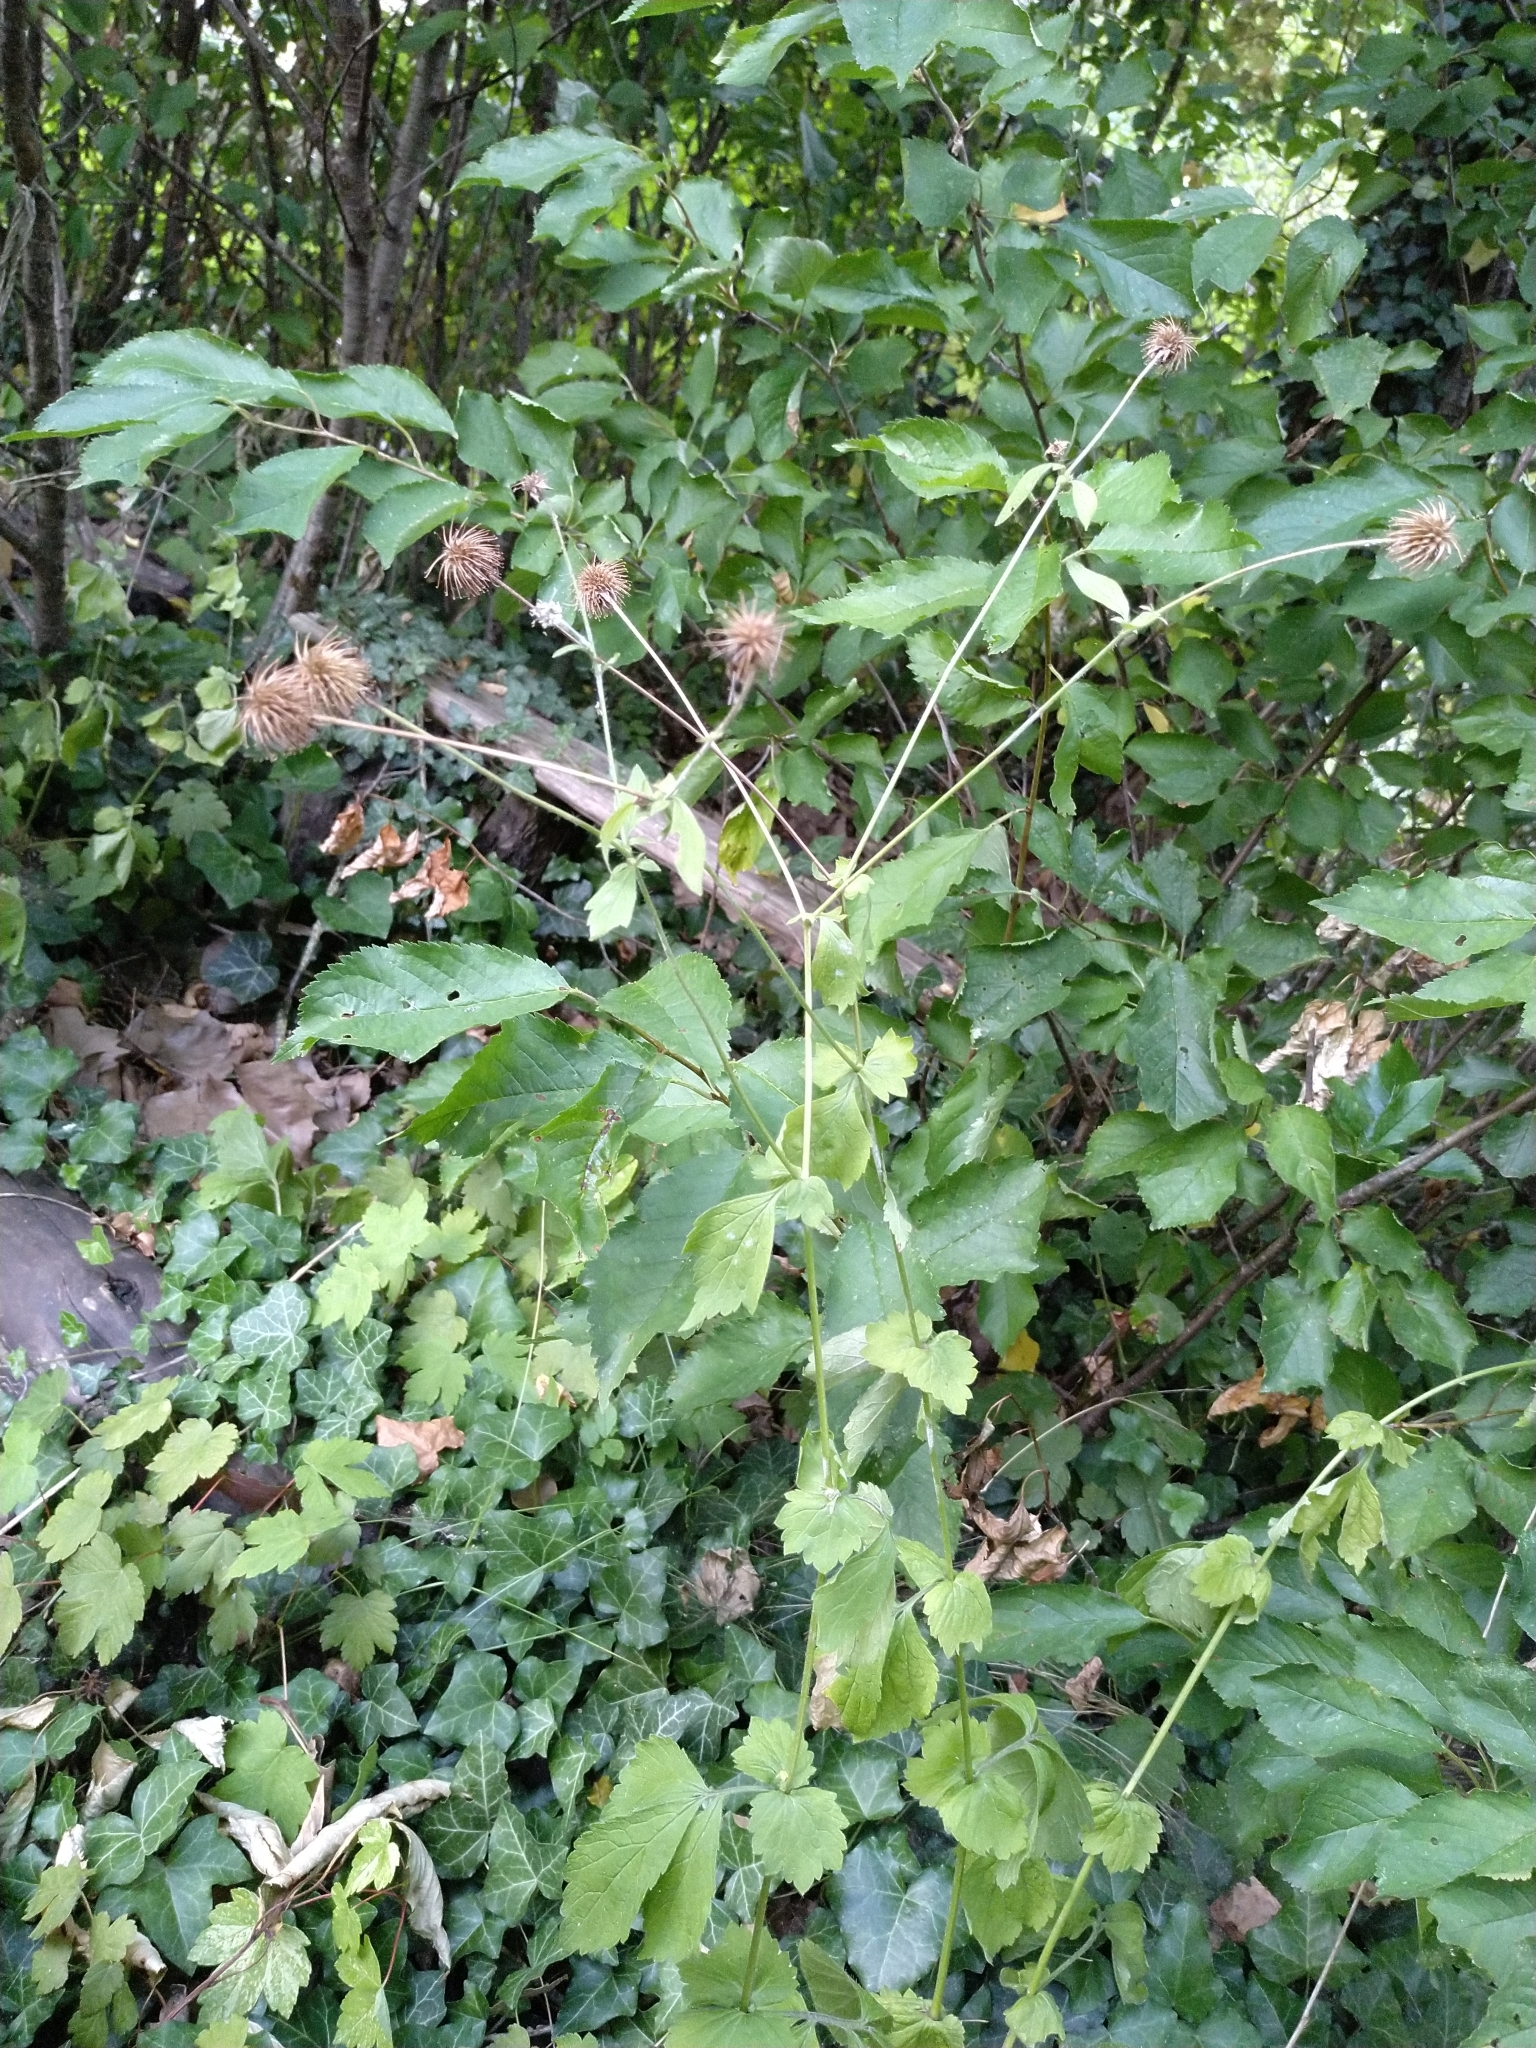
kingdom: Plantae
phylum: Tracheophyta
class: Magnoliopsida
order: Rosales
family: Rosaceae
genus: Geum
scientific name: Geum urbanum
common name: Wood avens
